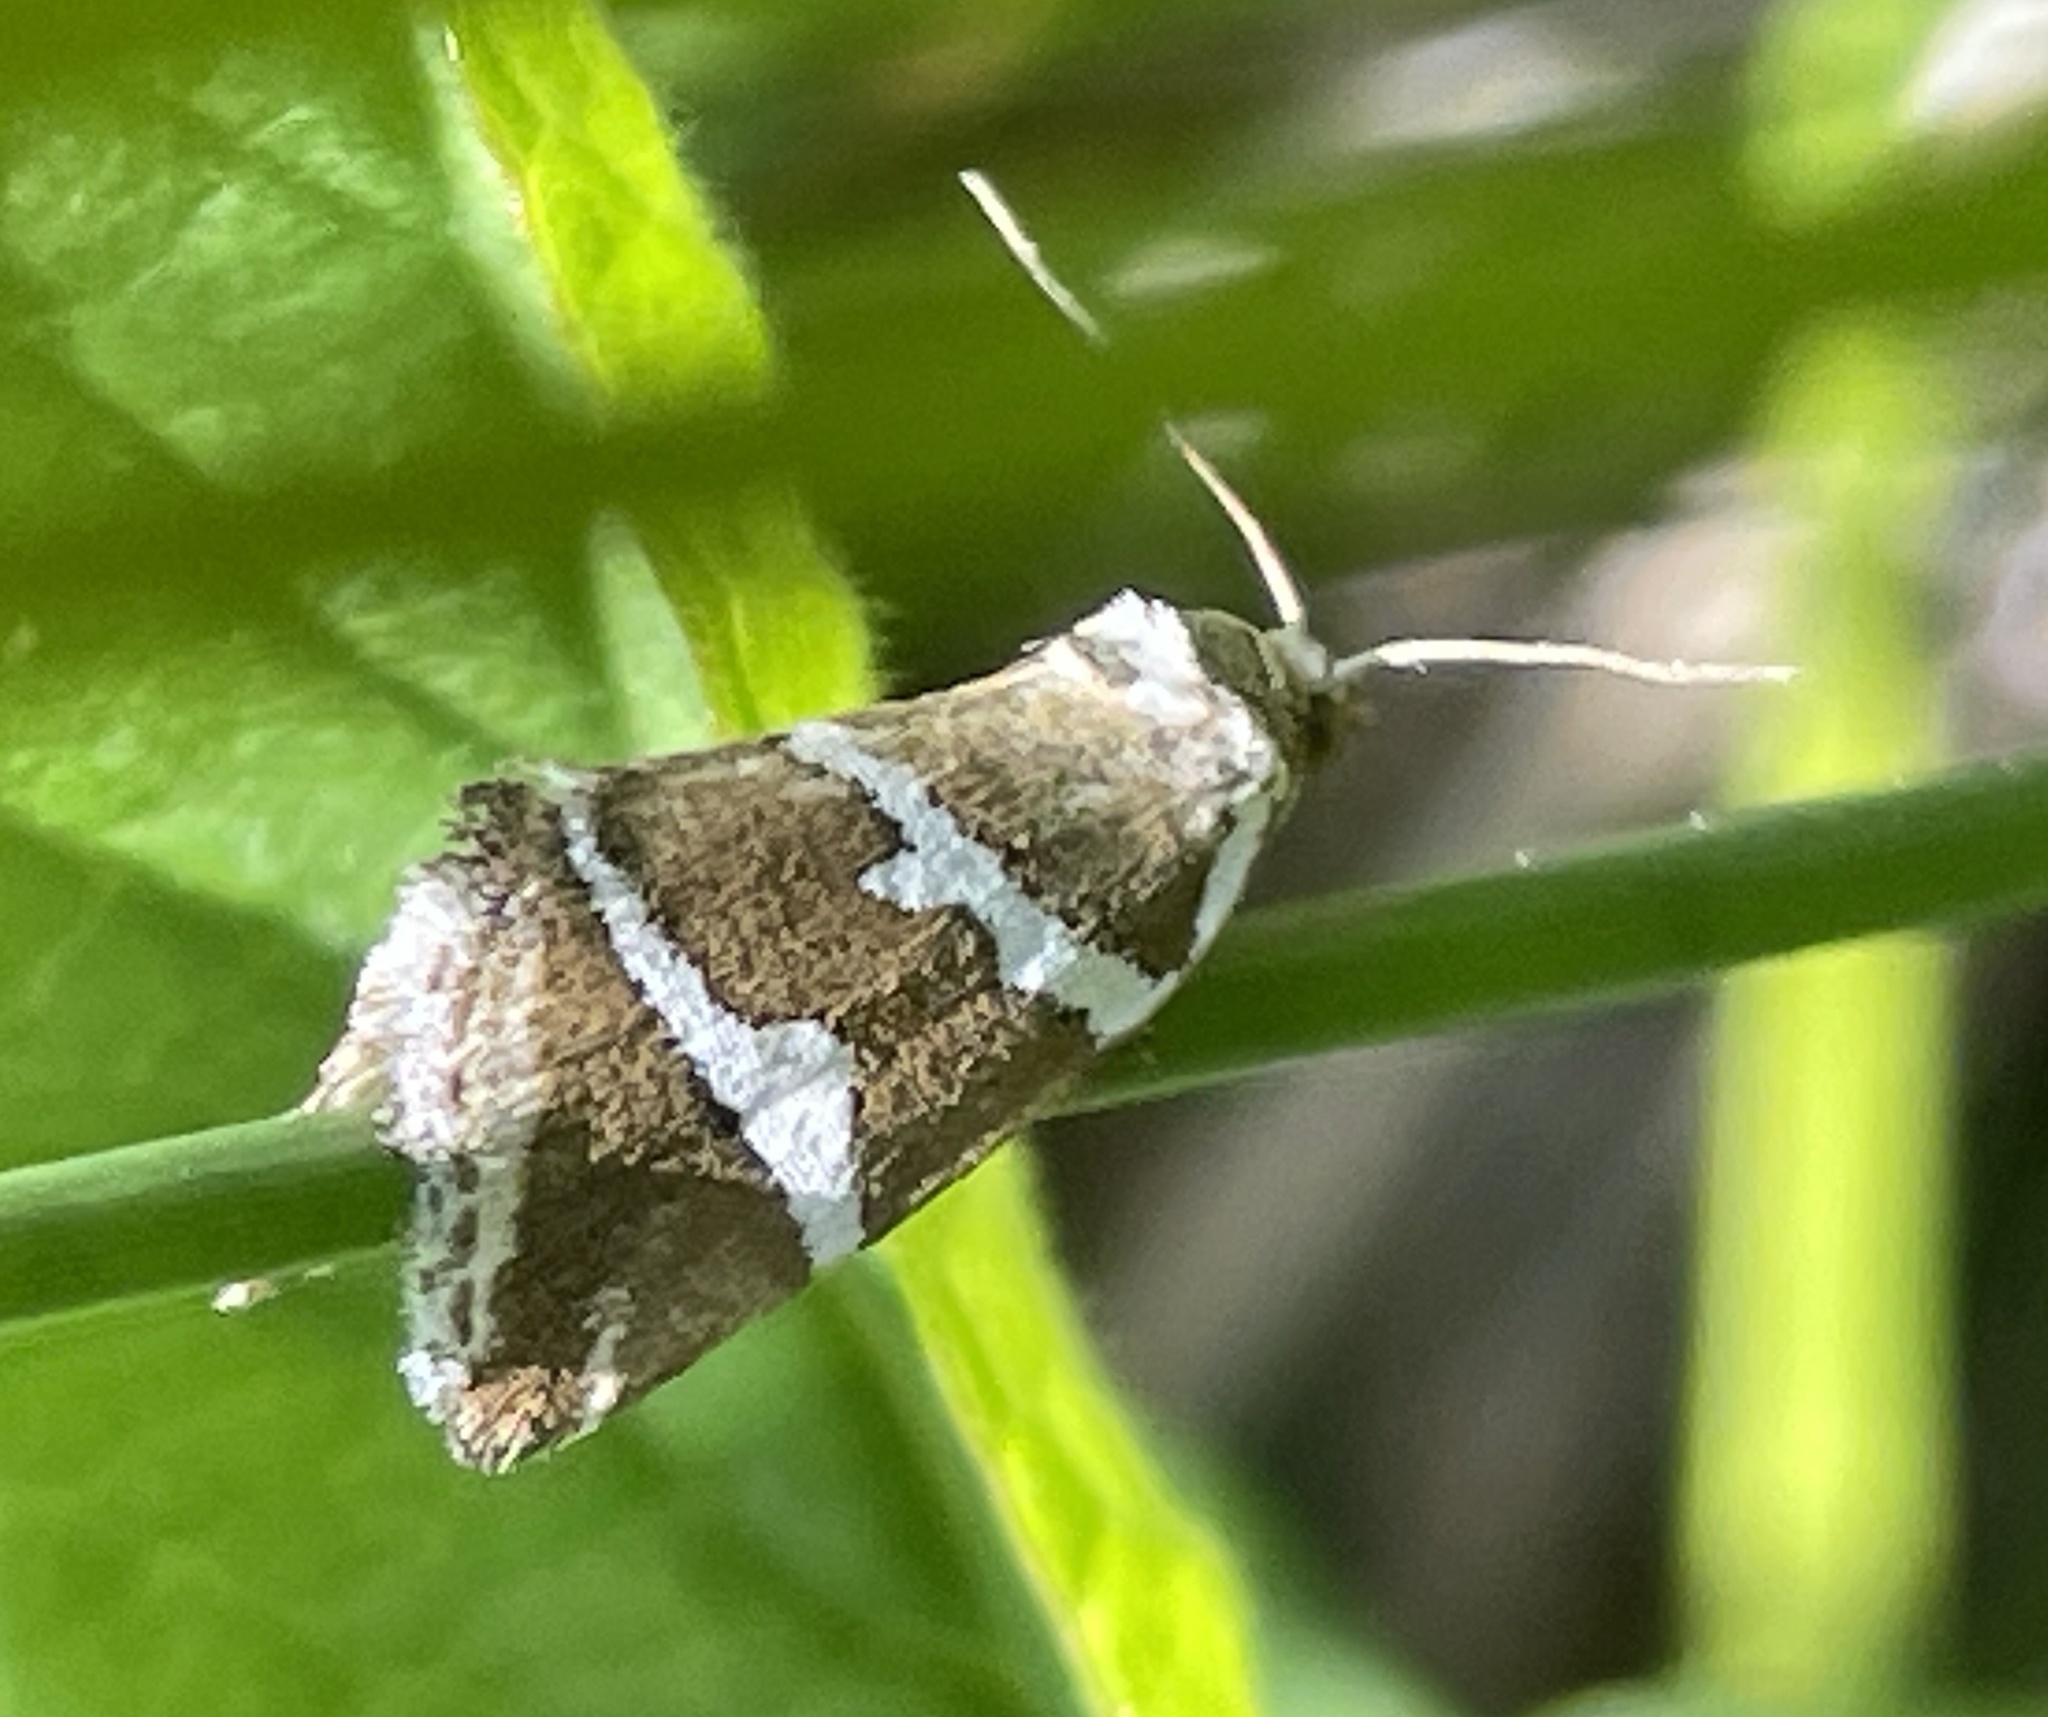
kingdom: Animalia
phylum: Arthropoda
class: Insecta
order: Lepidoptera
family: Noctuidae
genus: Deltote
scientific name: Deltote bankiana
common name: Silver barred
